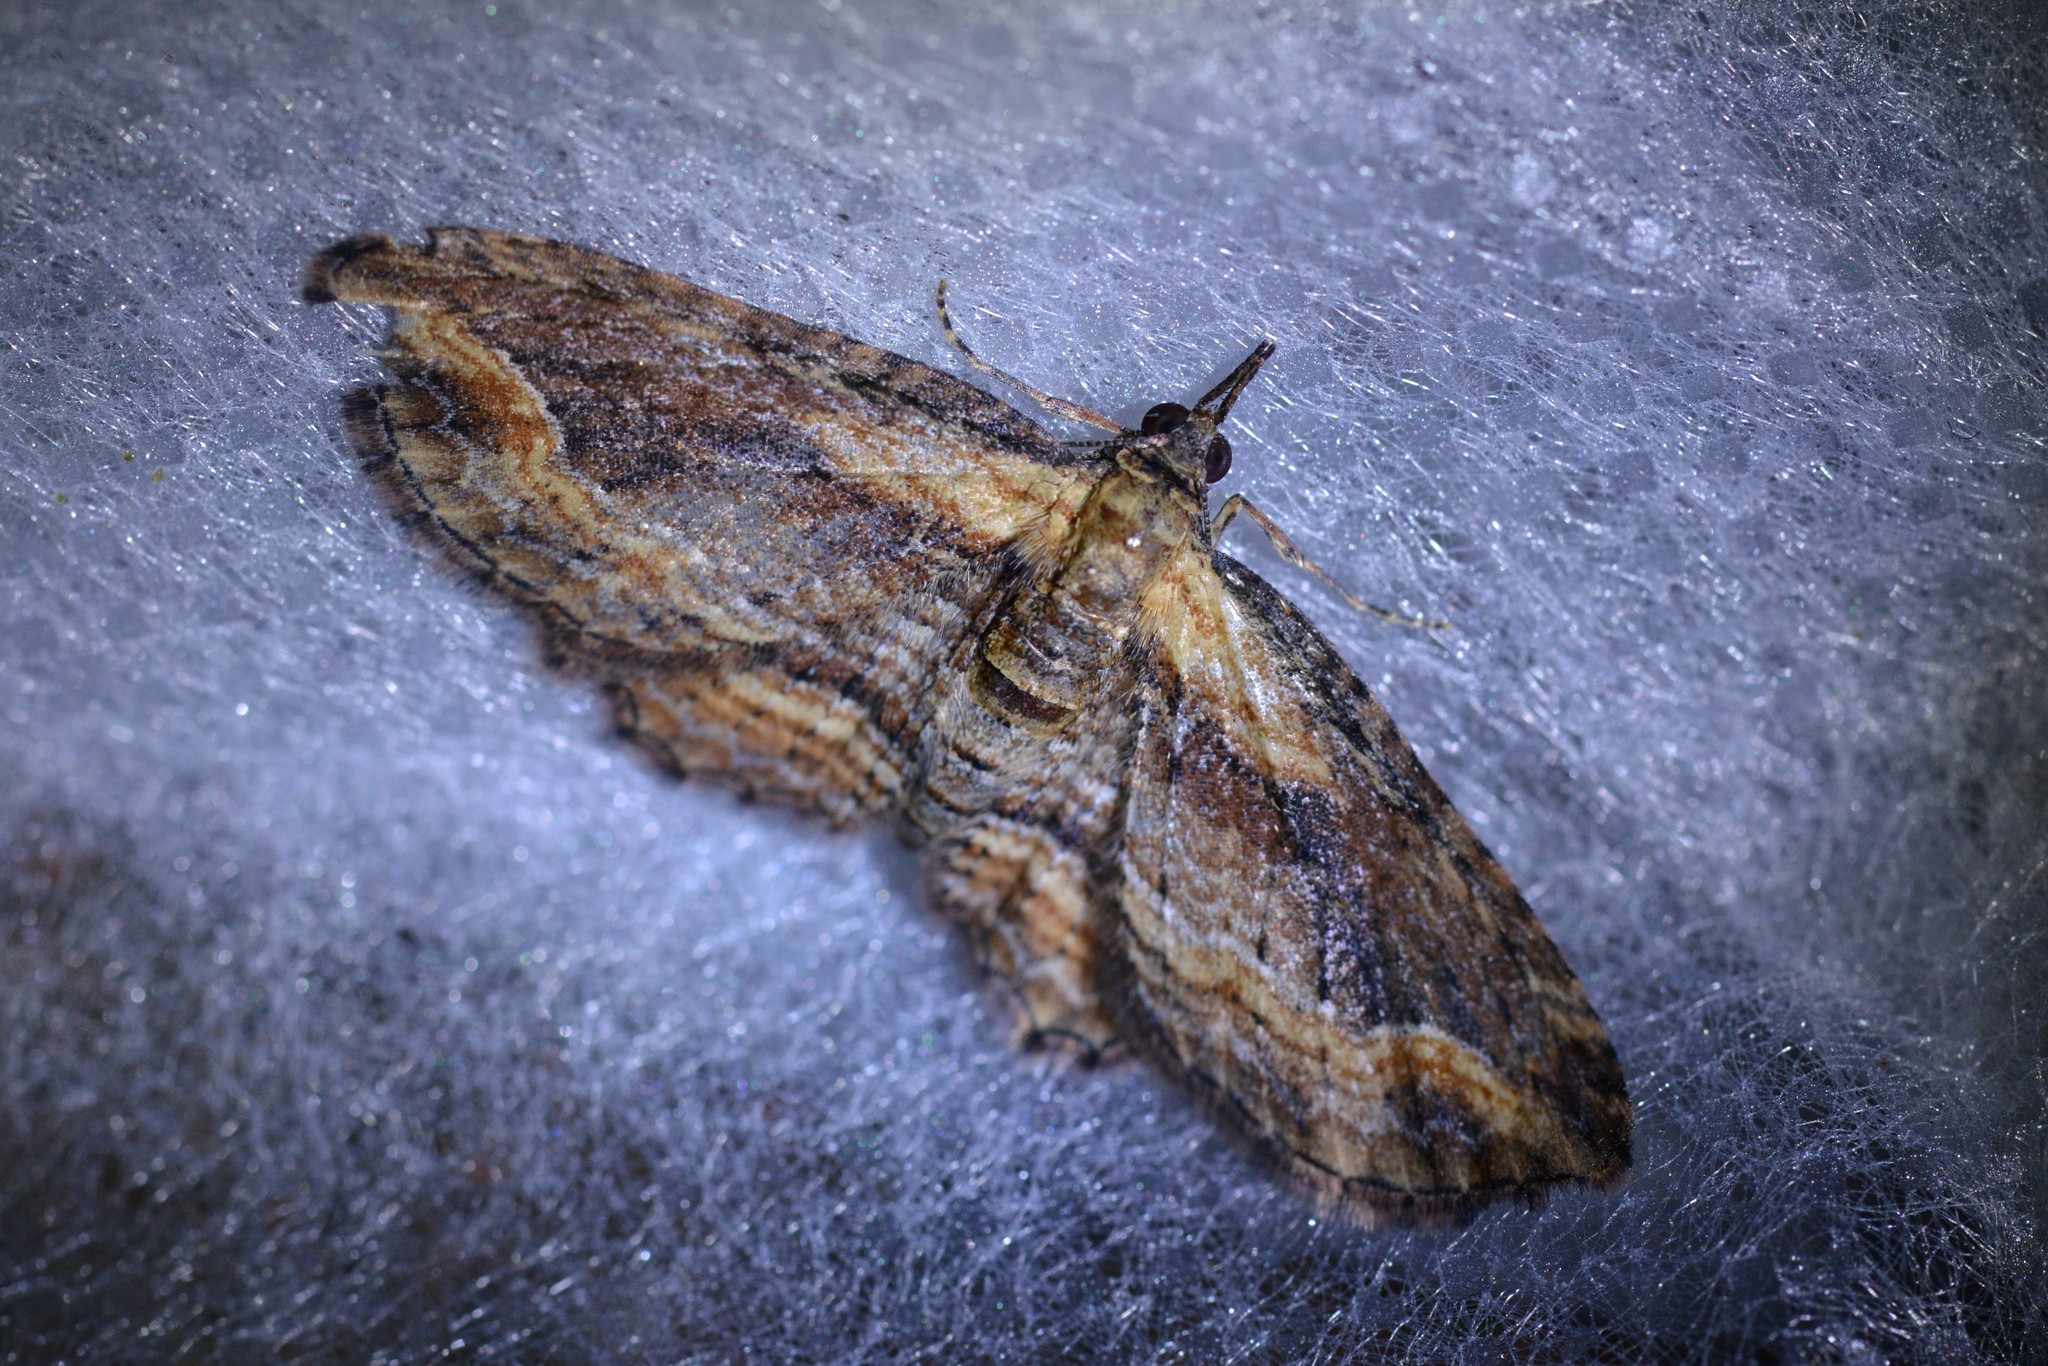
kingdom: Animalia
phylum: Arthropoda
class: Insecta
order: Lepidoptera
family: Geometridae
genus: Chloroclystis
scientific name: Chloroclystis filata
